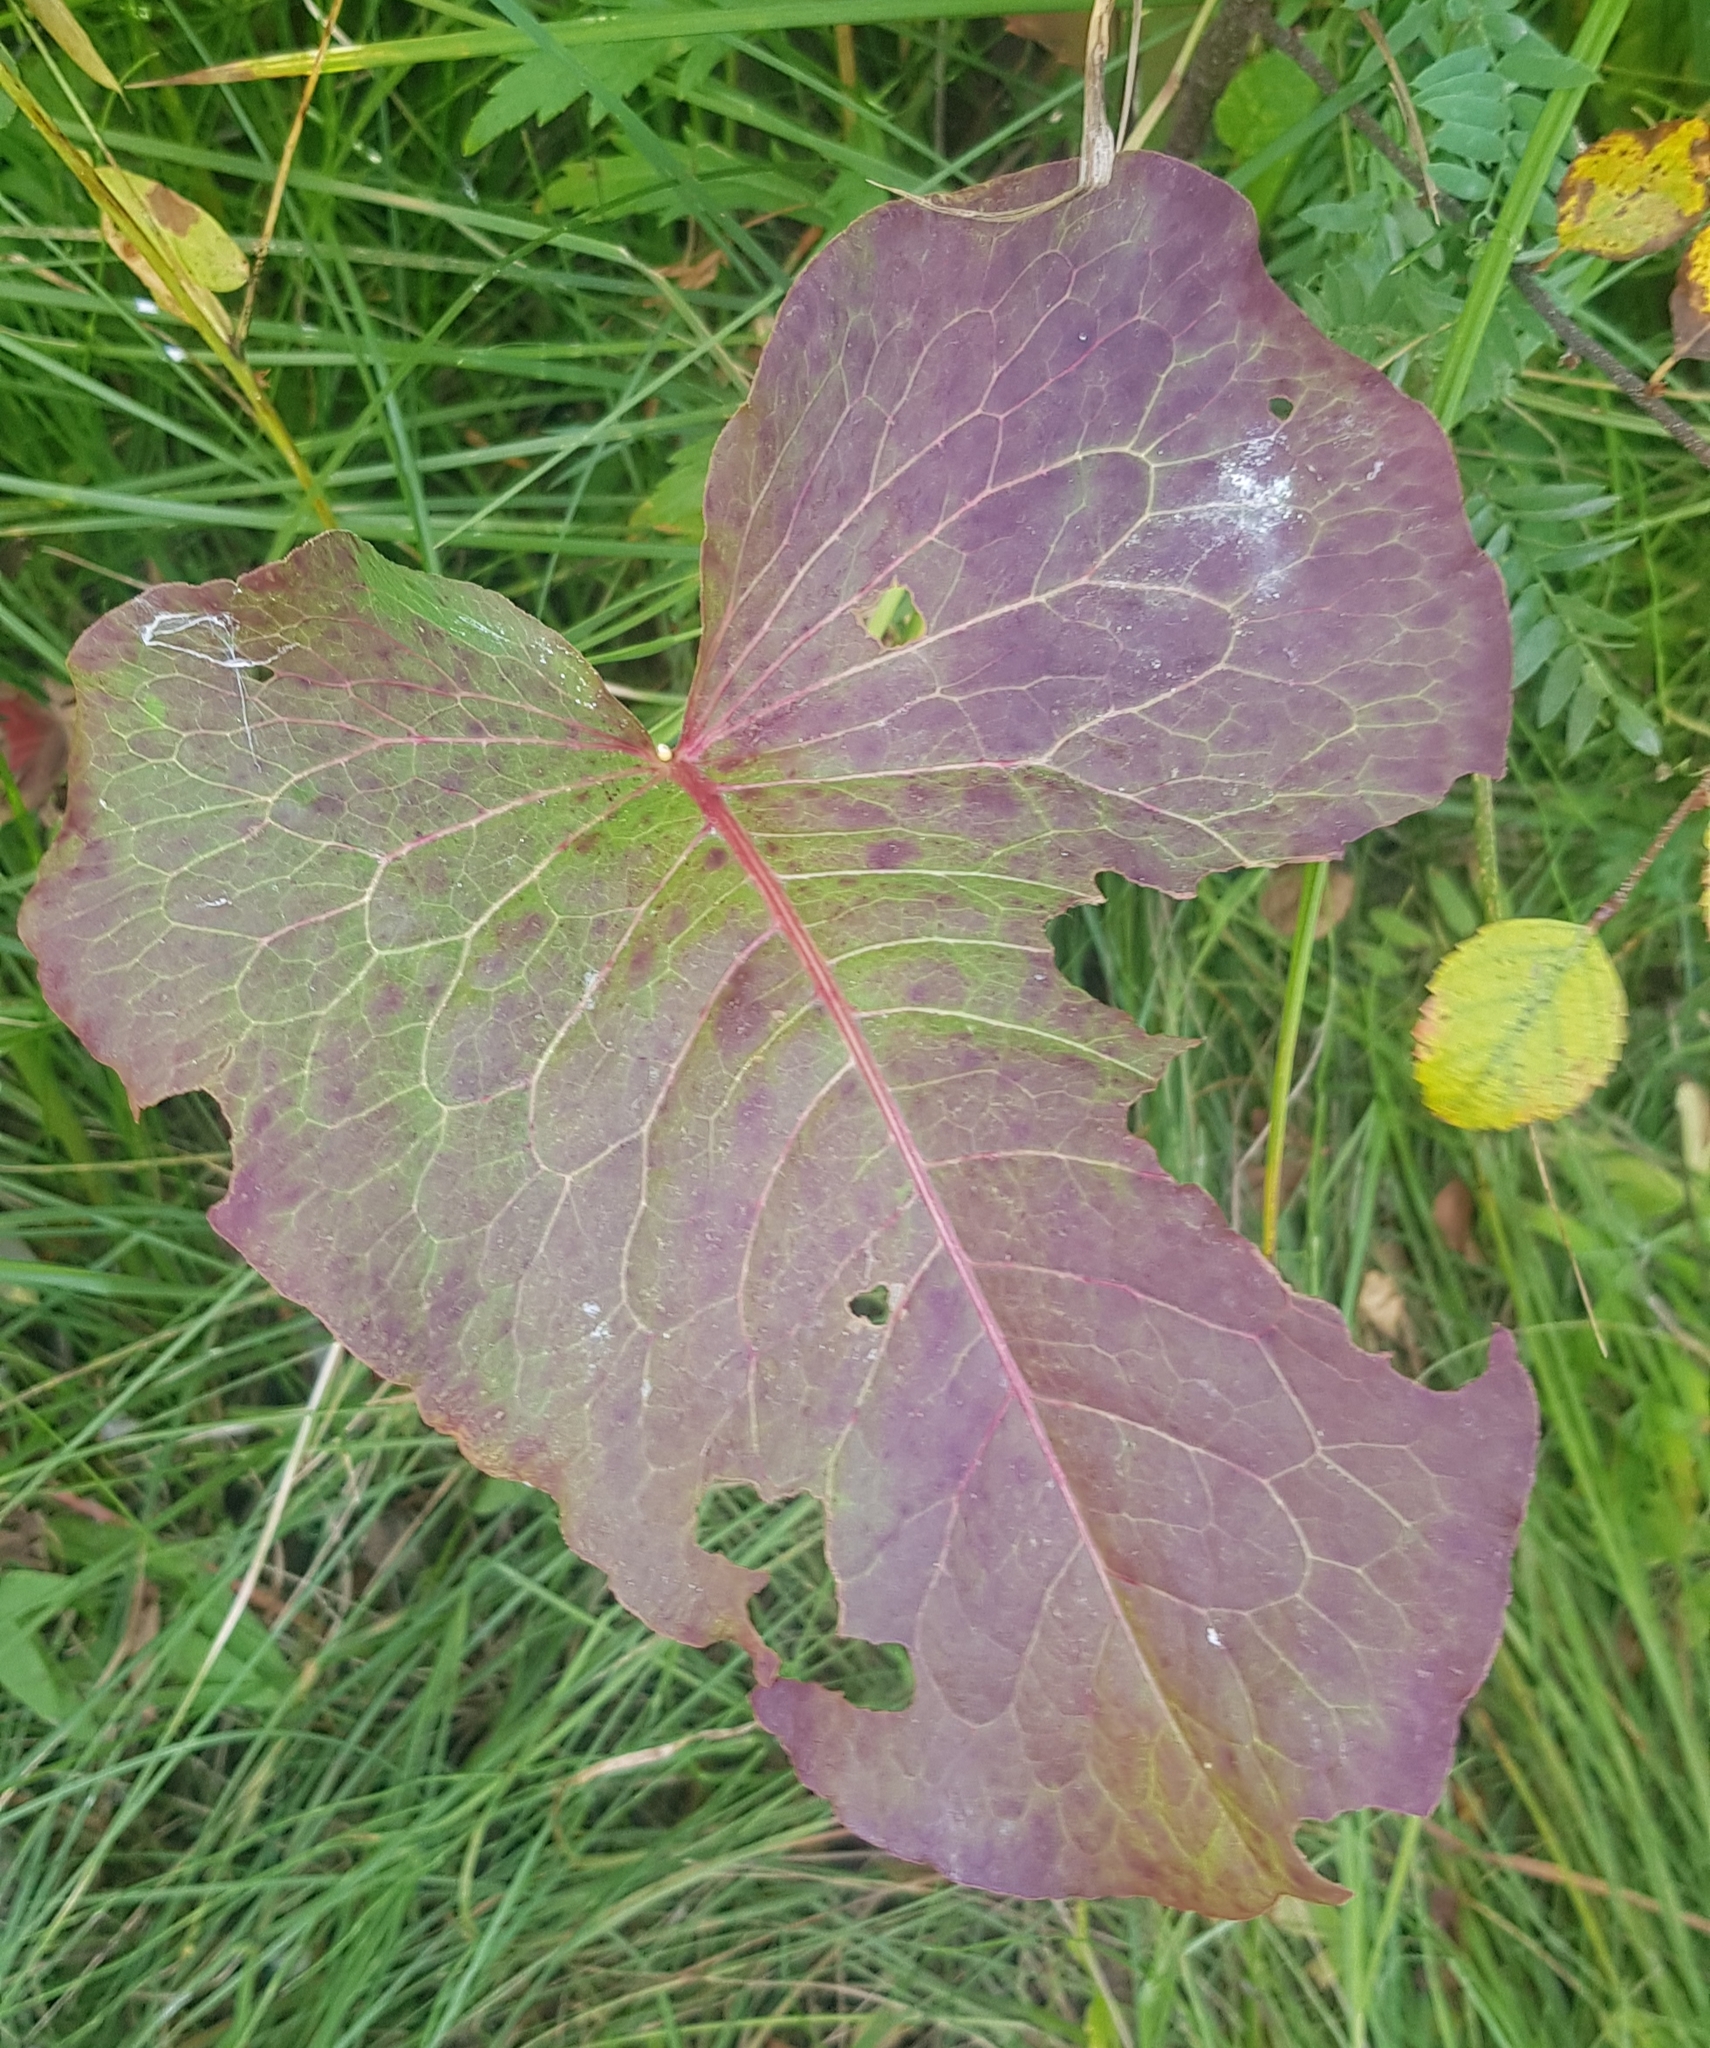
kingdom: Plantae
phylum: Tracheophyta
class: Magnoliopsida
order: Asterales
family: Asteraceae
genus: Ligularia
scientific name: Ligularia sibirica
